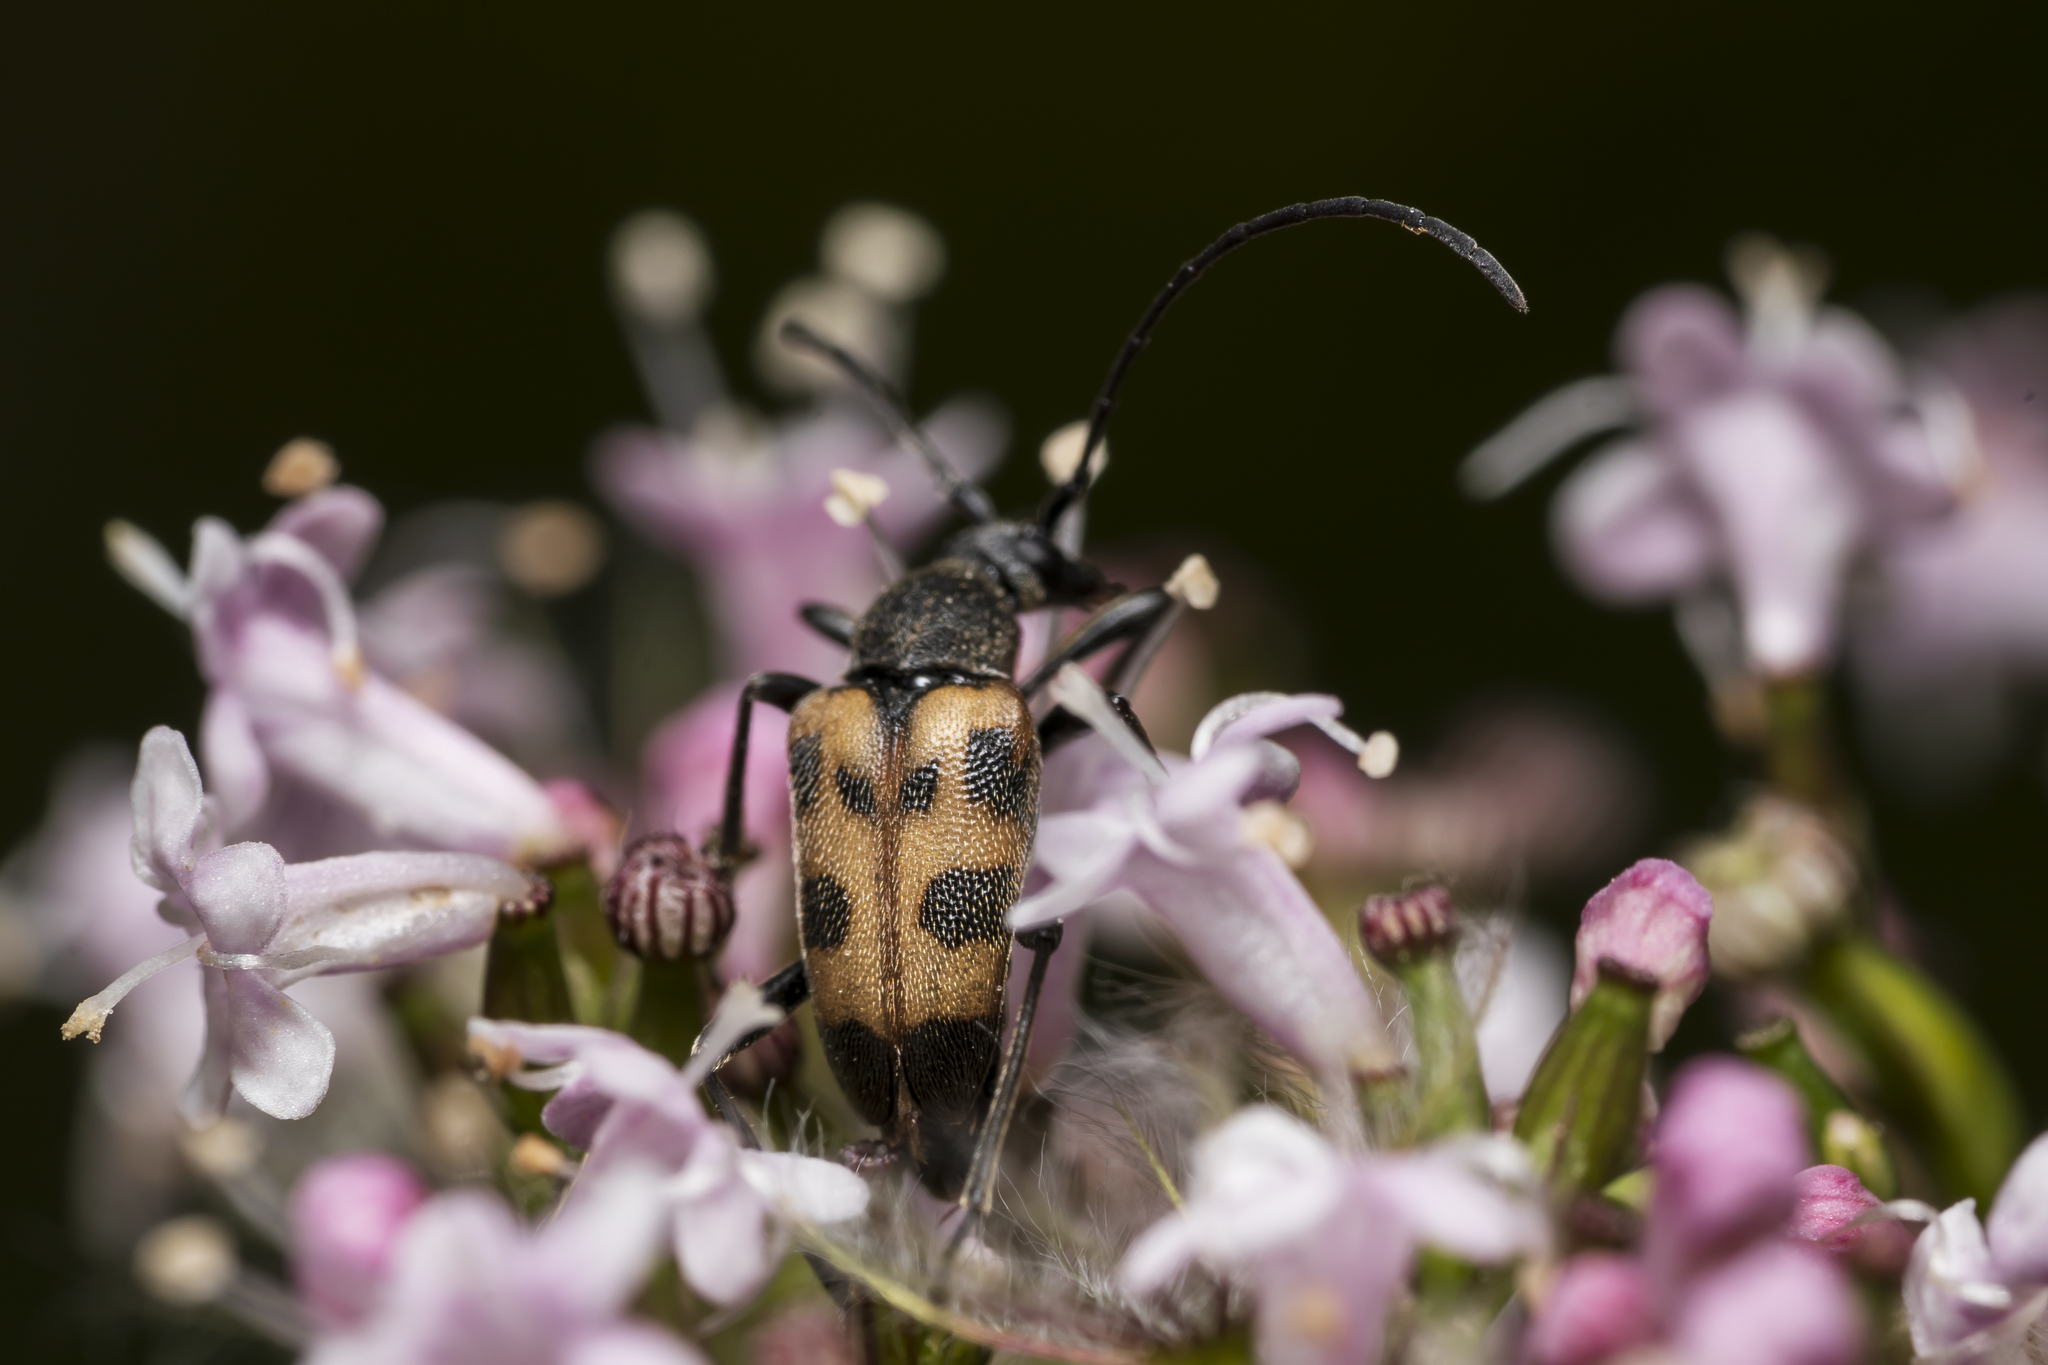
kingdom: Animalia
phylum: Arthropoda
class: Insecta
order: Coleoptera
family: Cerambycidae
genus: Pachytodes
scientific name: Pachytodes cerambyciformis
